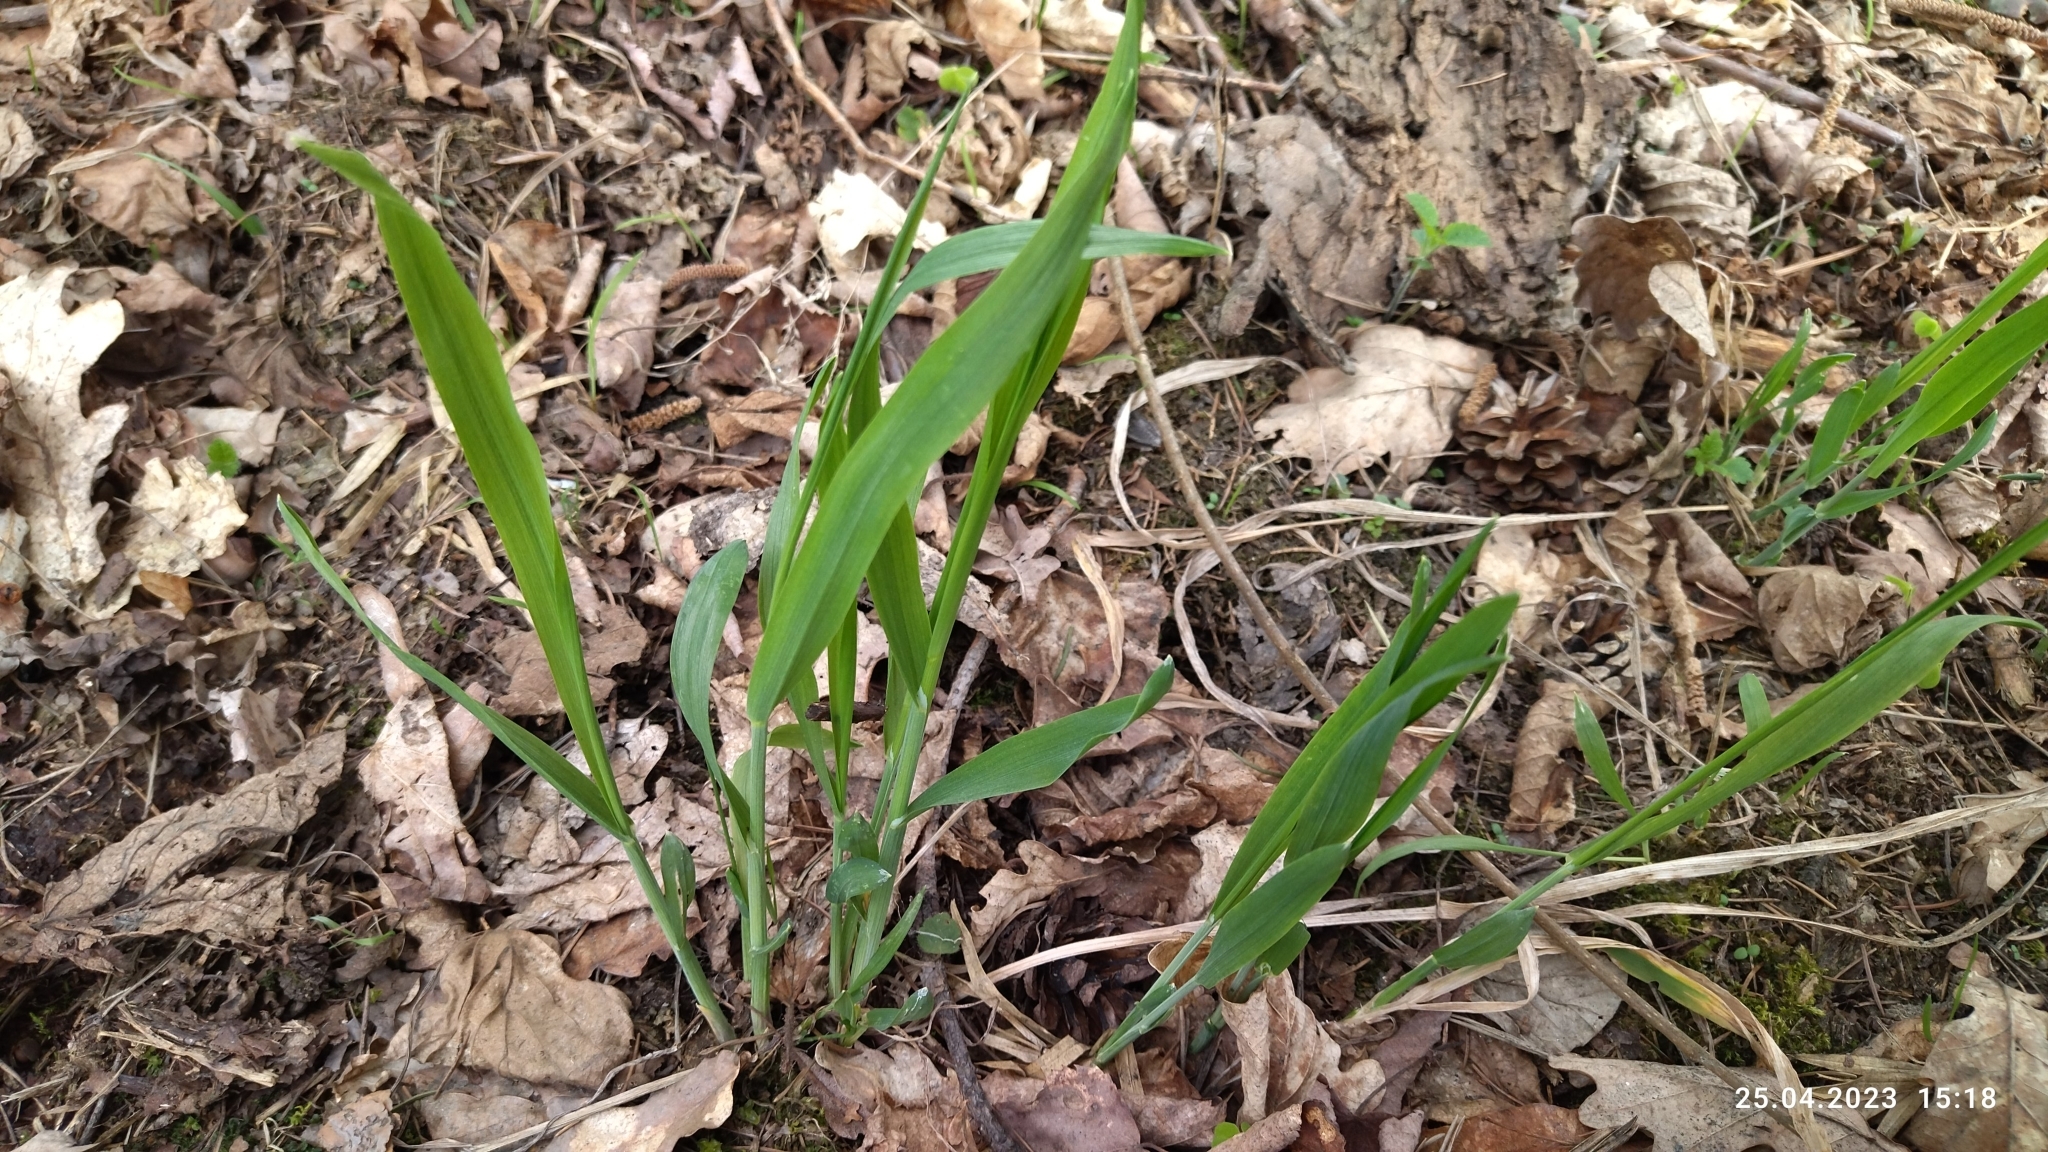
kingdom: Plantae
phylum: Tracheophyta
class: Liliopsida
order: Poales
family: Poaceae
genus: Milium
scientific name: Milium effusum
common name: Wood millet
